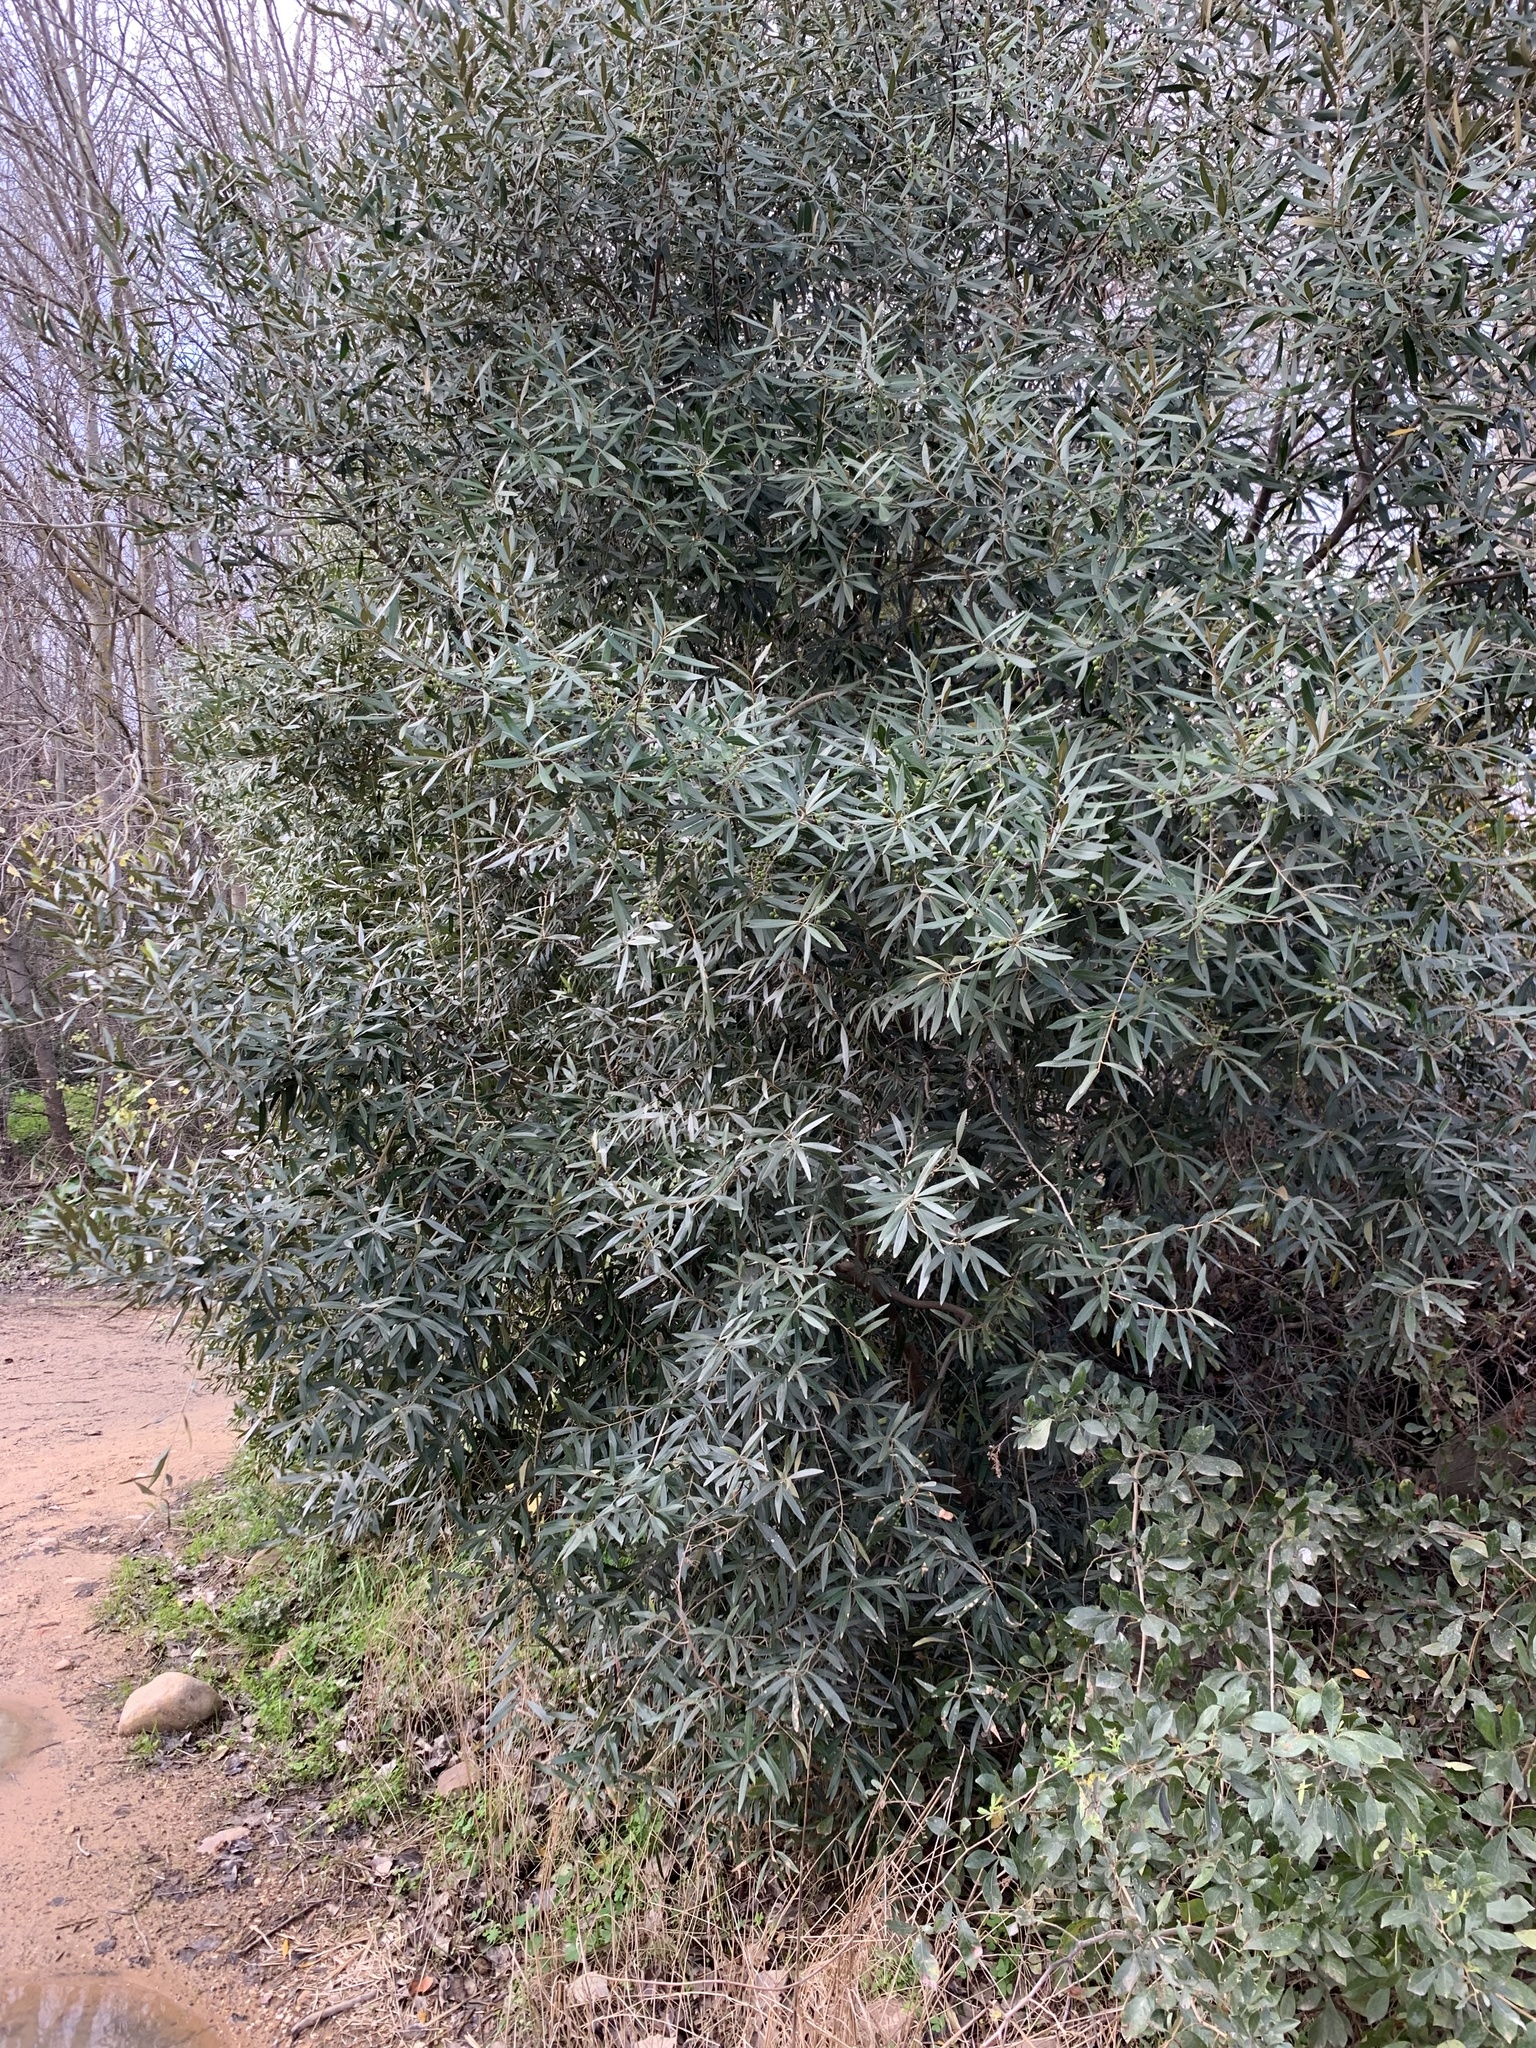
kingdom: Plantae
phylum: Tracheophyta
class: Magnoliopsida
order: Lamiales
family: Oleaceae
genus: Olea
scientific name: Olea europaea
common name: Olive
